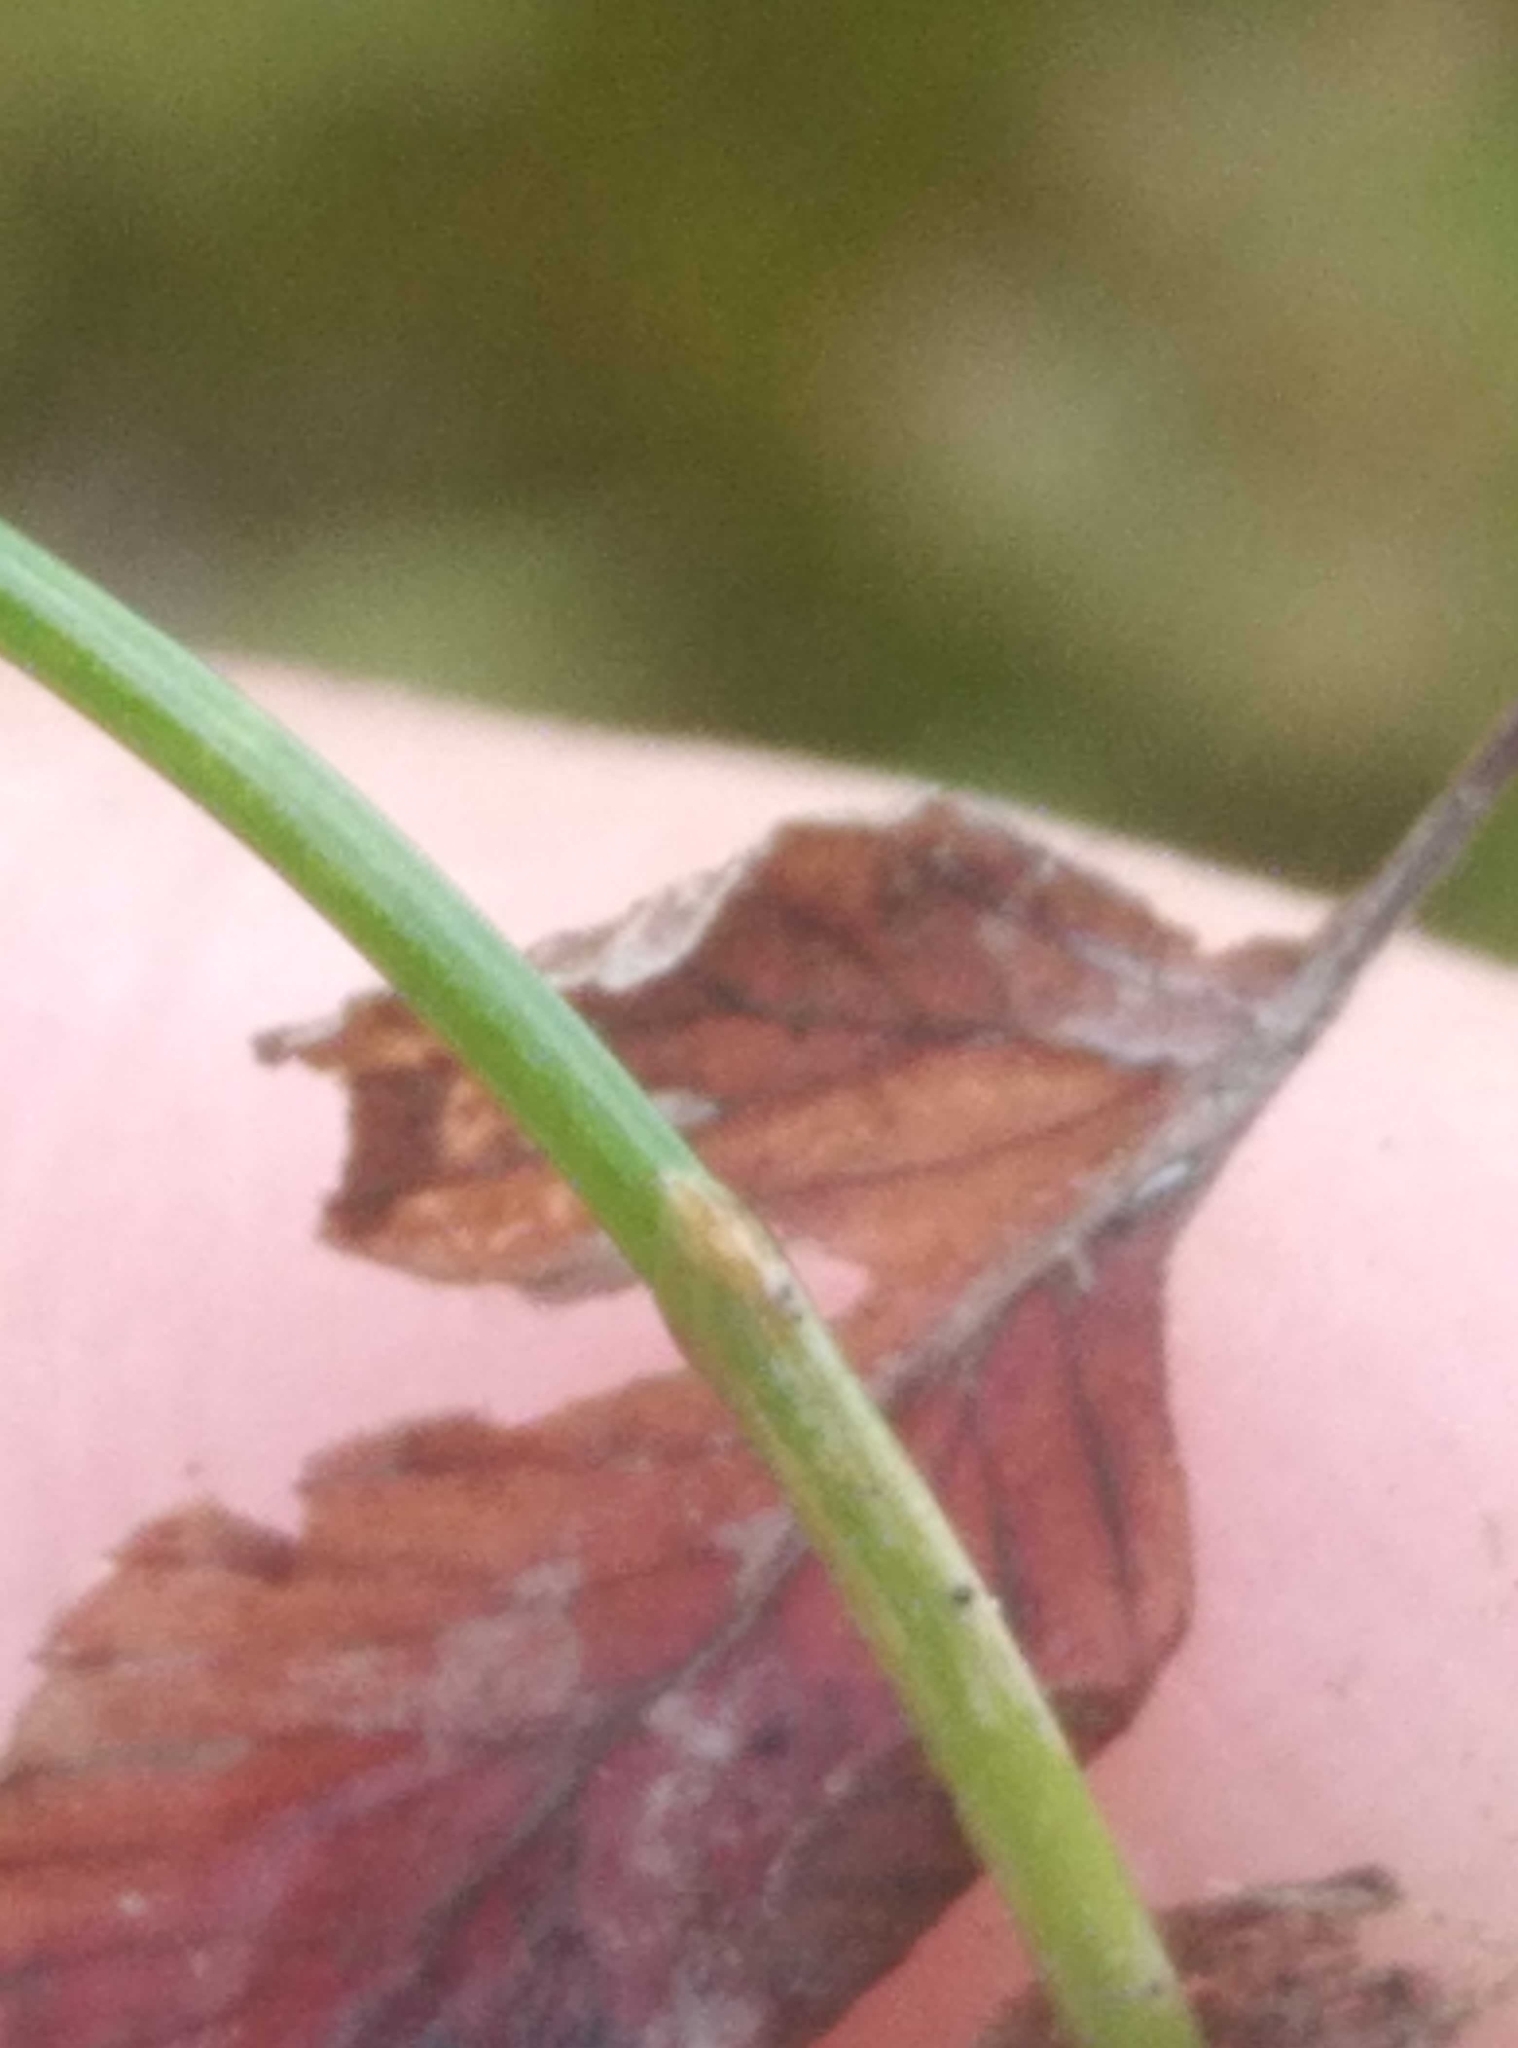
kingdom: Plantae
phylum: Tracheophyta
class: Liliopsida
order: Poales
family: Cyperaceae
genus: Eleocharis
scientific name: Eleocharis gracilis
